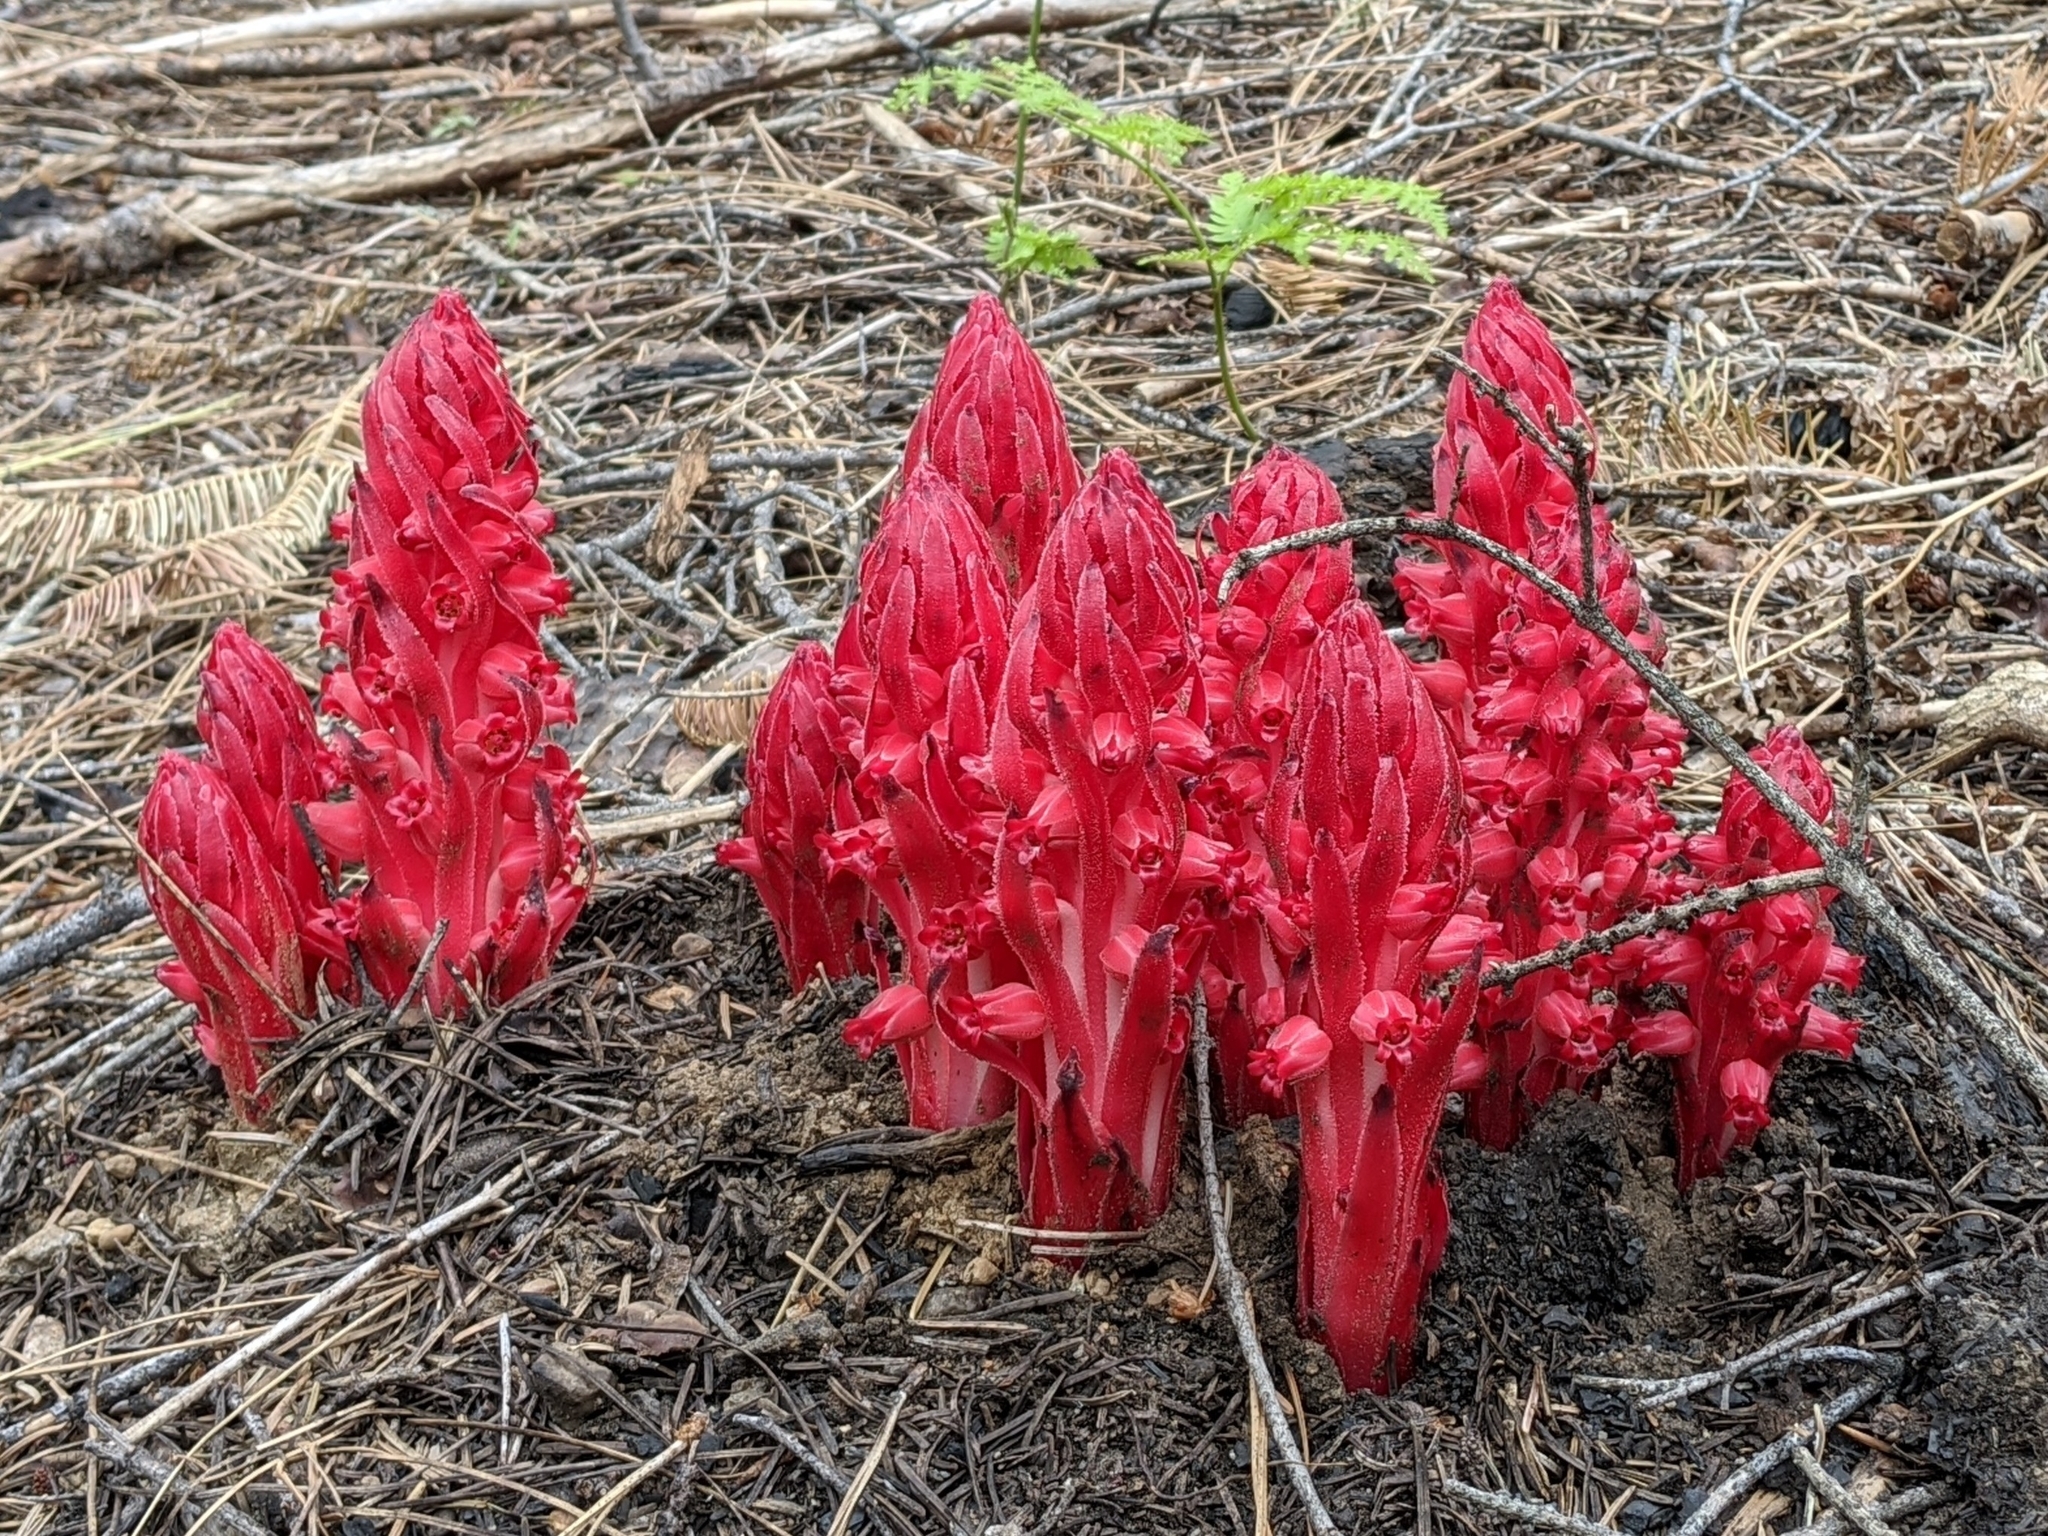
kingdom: Plantae
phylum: Tracheophyta
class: Magnoliopsida
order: Ericales
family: Ericaceae
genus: Sarcodes
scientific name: Sarcodes sanguinea
